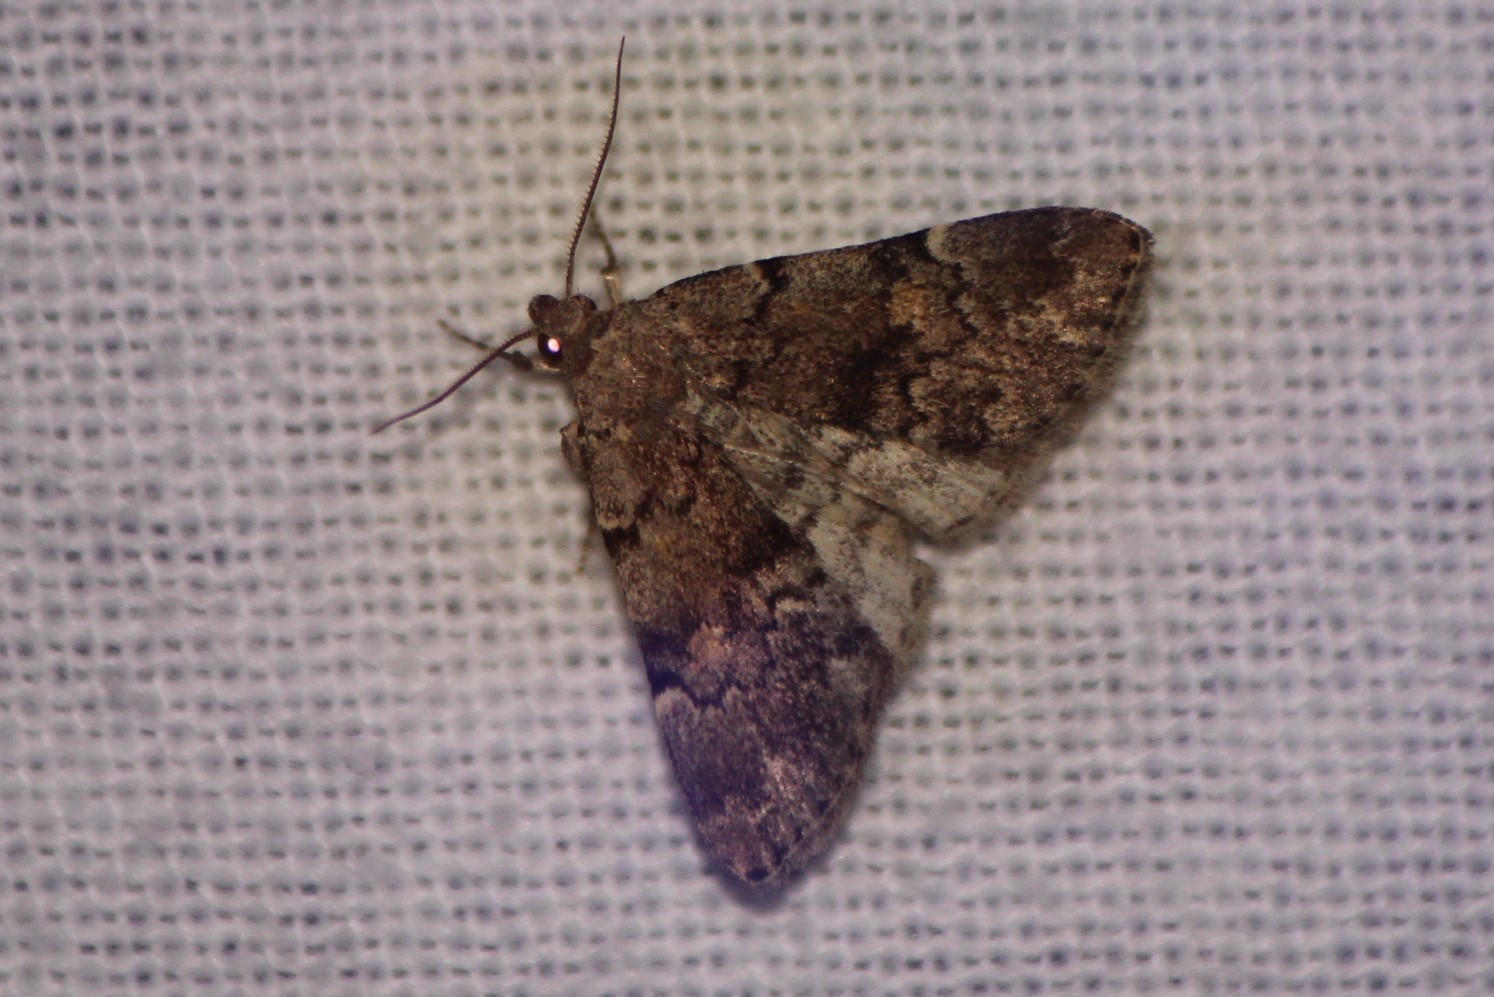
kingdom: Animalia
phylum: Arthropoda
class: Insecta
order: Lepidoptera
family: Erebidae
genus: Idia
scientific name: Idia aemula
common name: Common idia moth
